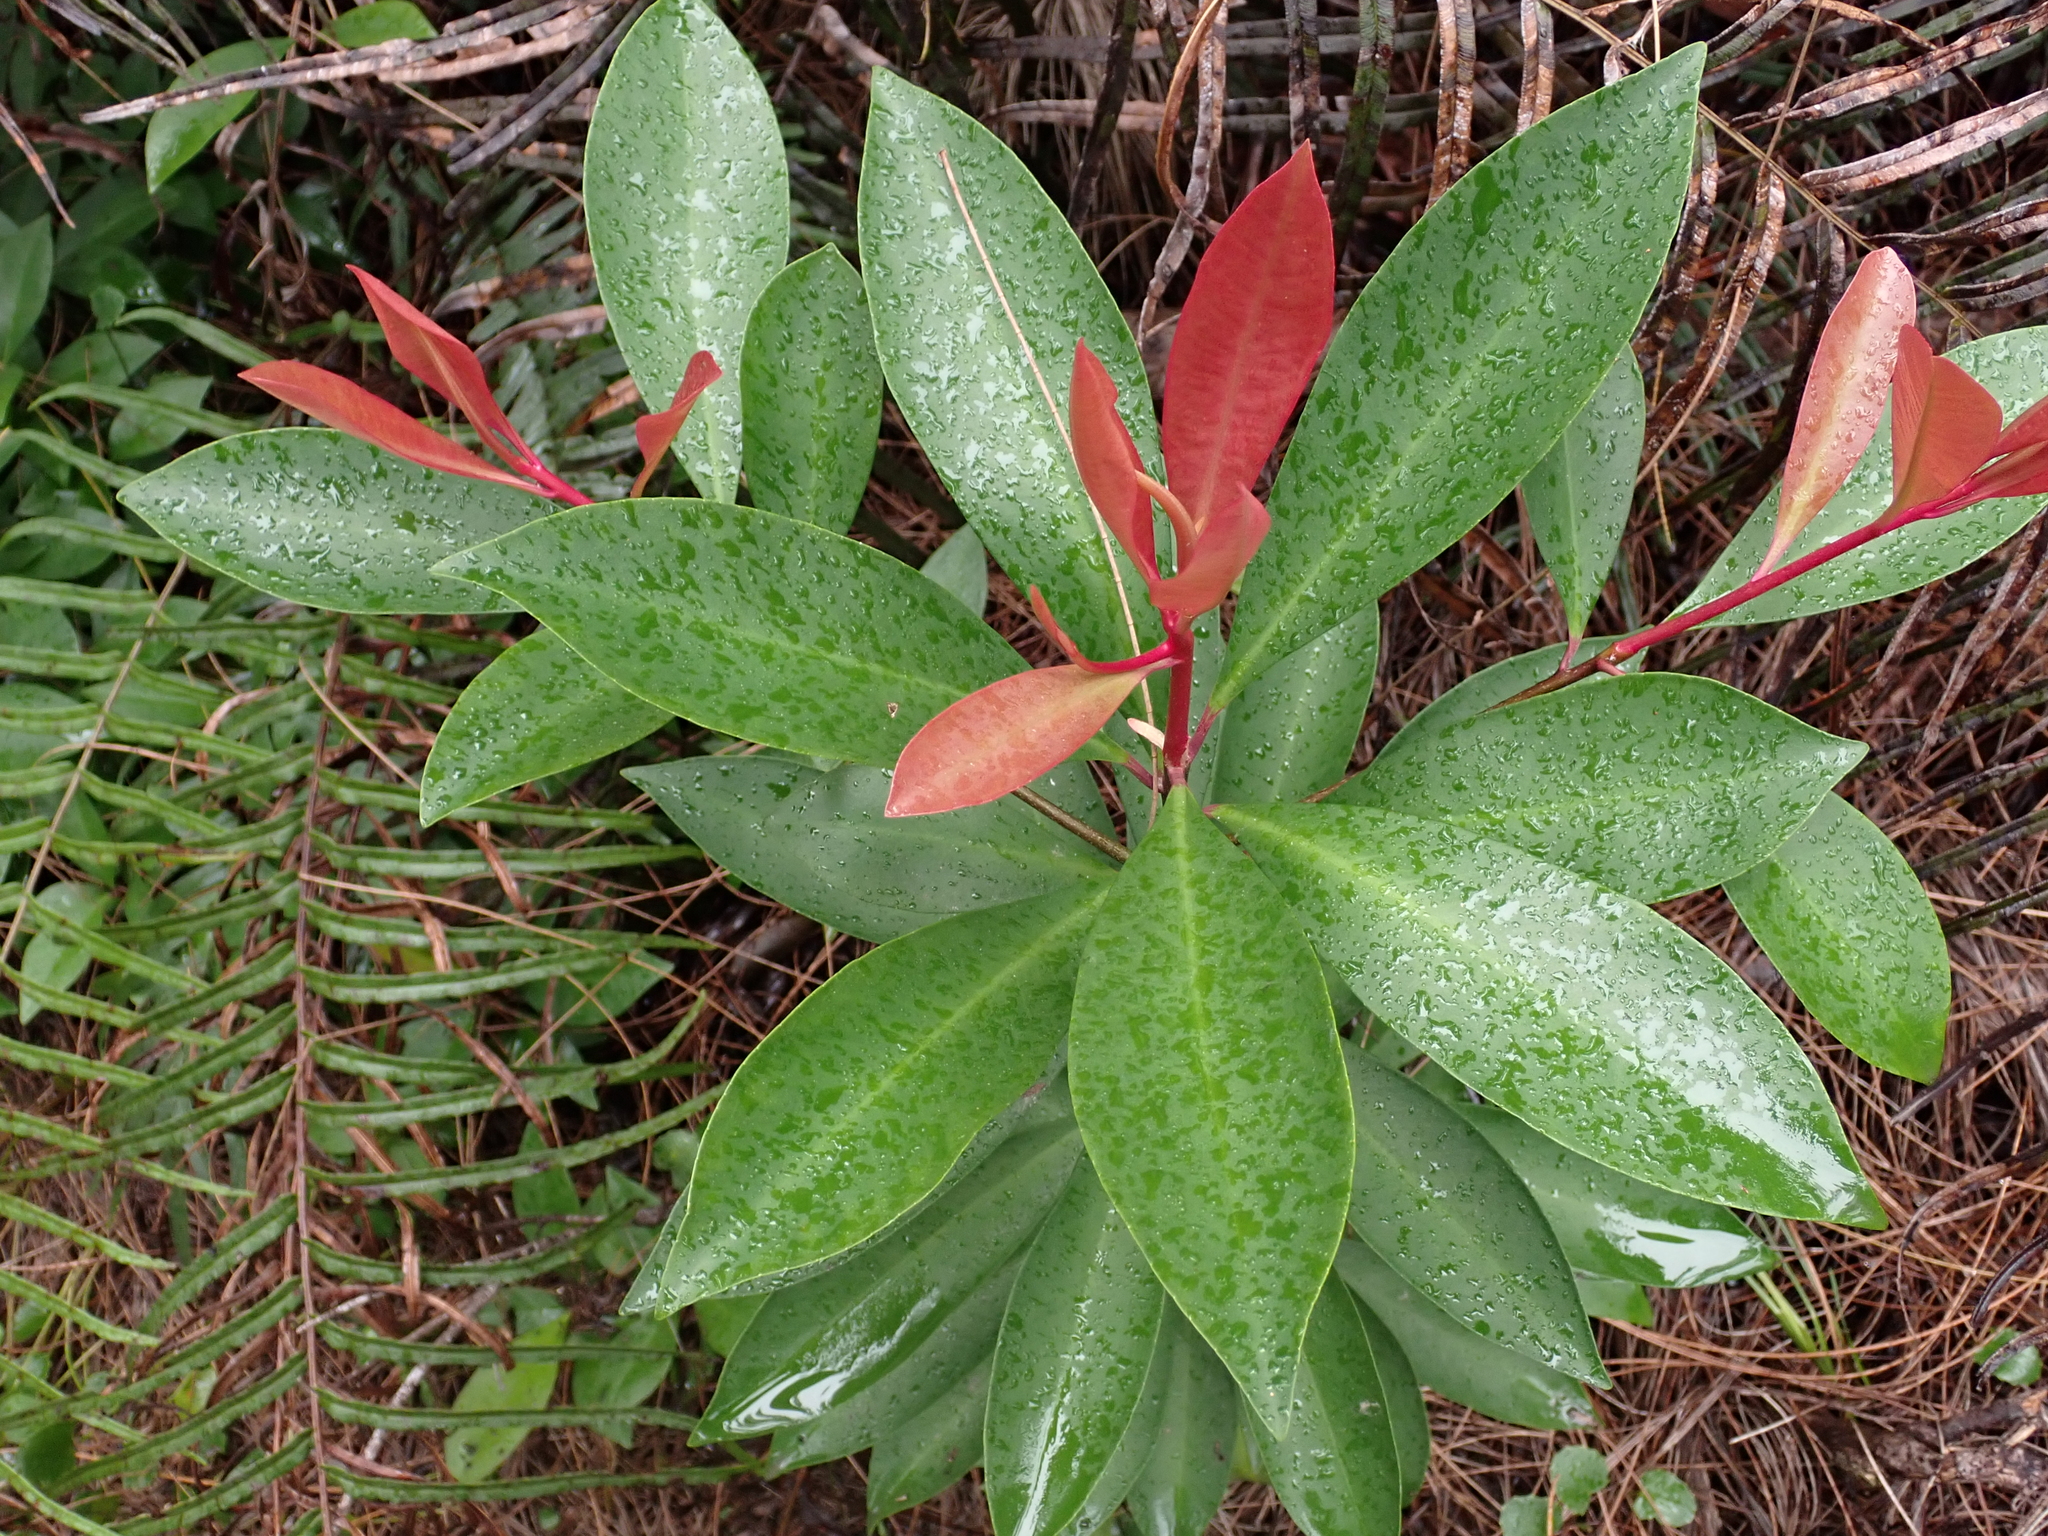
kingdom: Plantae
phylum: Tracheophyta
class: Magnoliopsida
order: Ericales
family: Primulaceae
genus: Ardisia
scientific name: Ardisia elliptica
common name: Shoebutton
